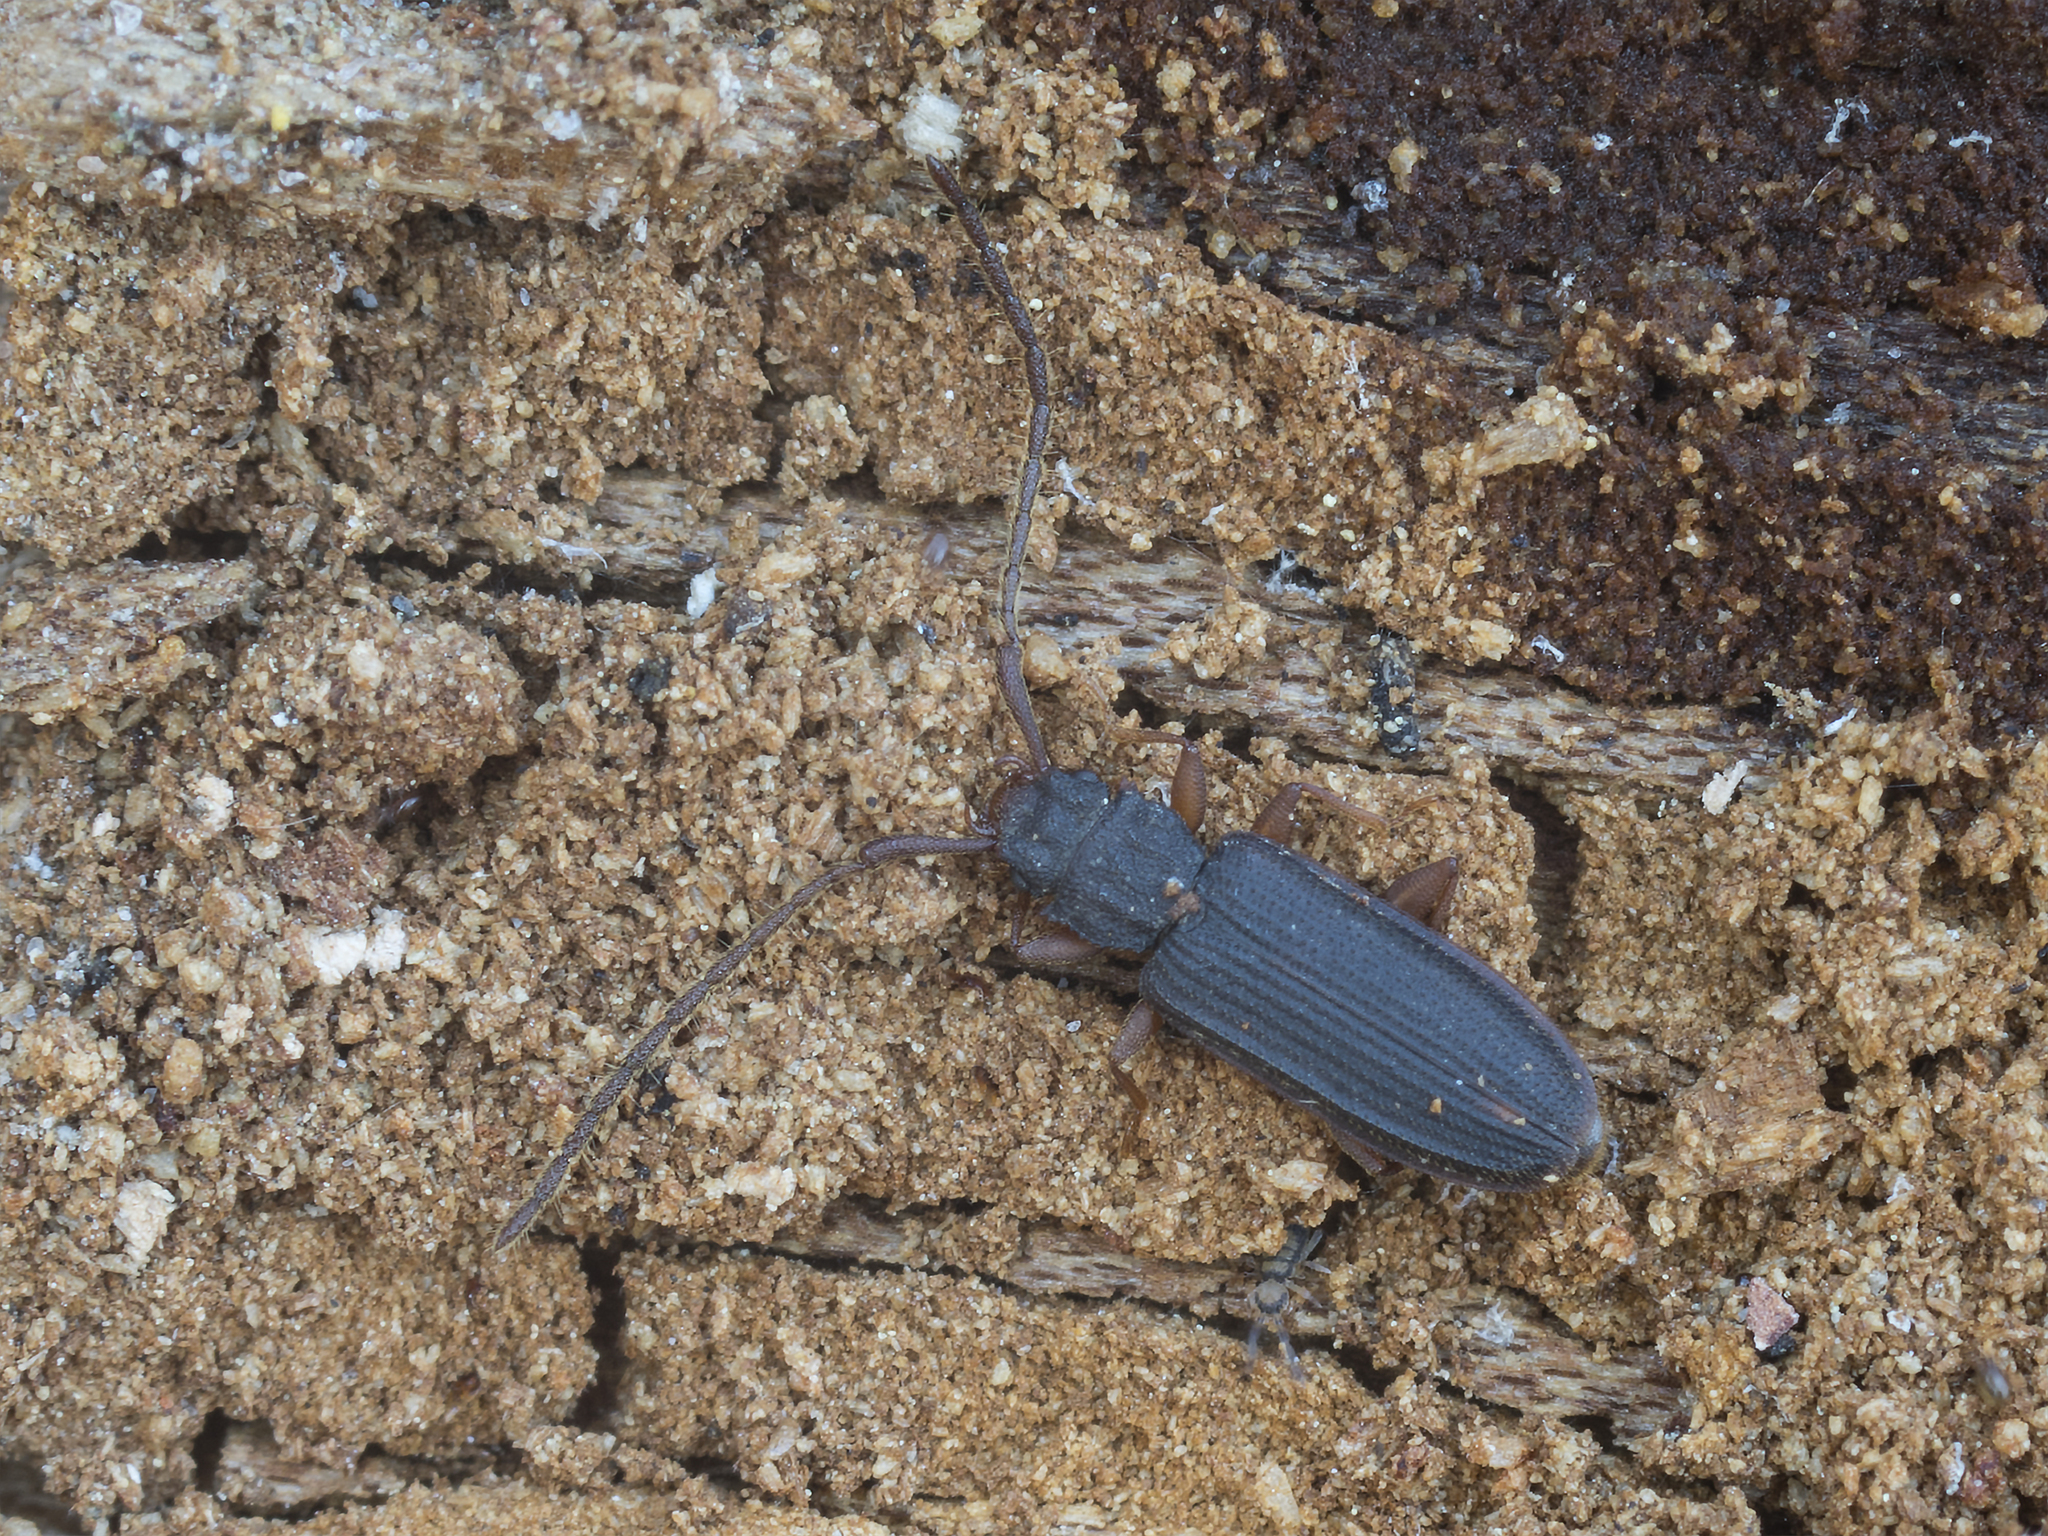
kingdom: Animalia
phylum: Arthropoda
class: Insecta
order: Coleoptera
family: Silvanidae
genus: Uleiota
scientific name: Uleiota planatus
